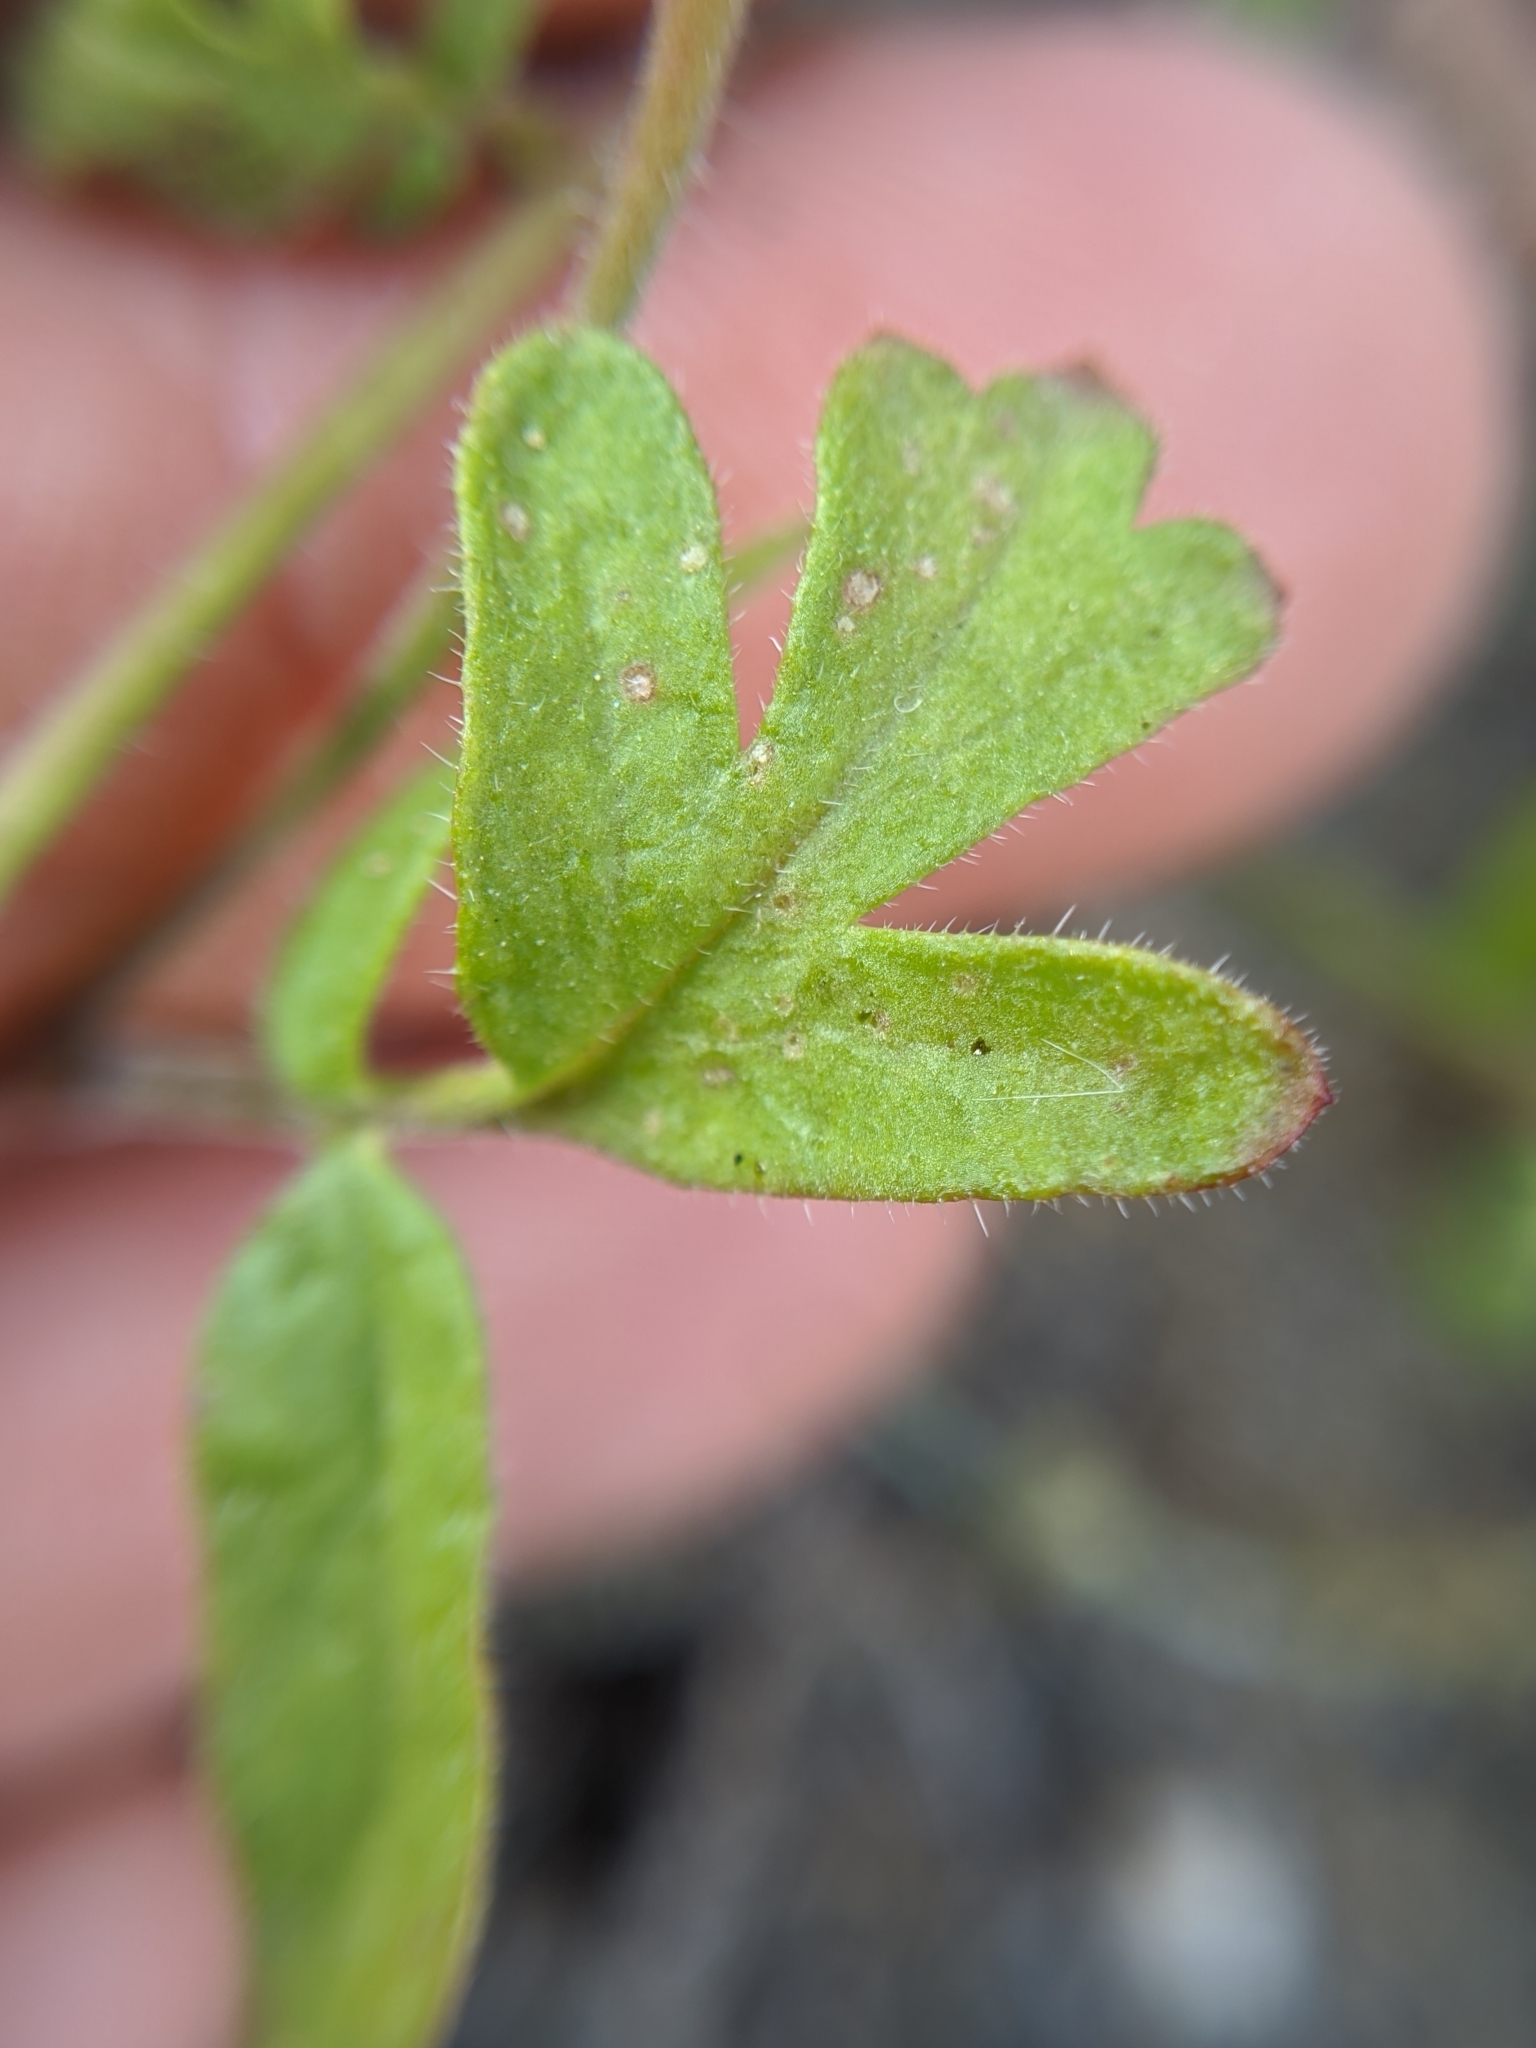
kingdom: Plantae
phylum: Tracheophyta
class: Magnoliopsida
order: Boraginales
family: Hydrophyllaceae
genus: Phacelia
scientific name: Phacelia vallis-mortae
